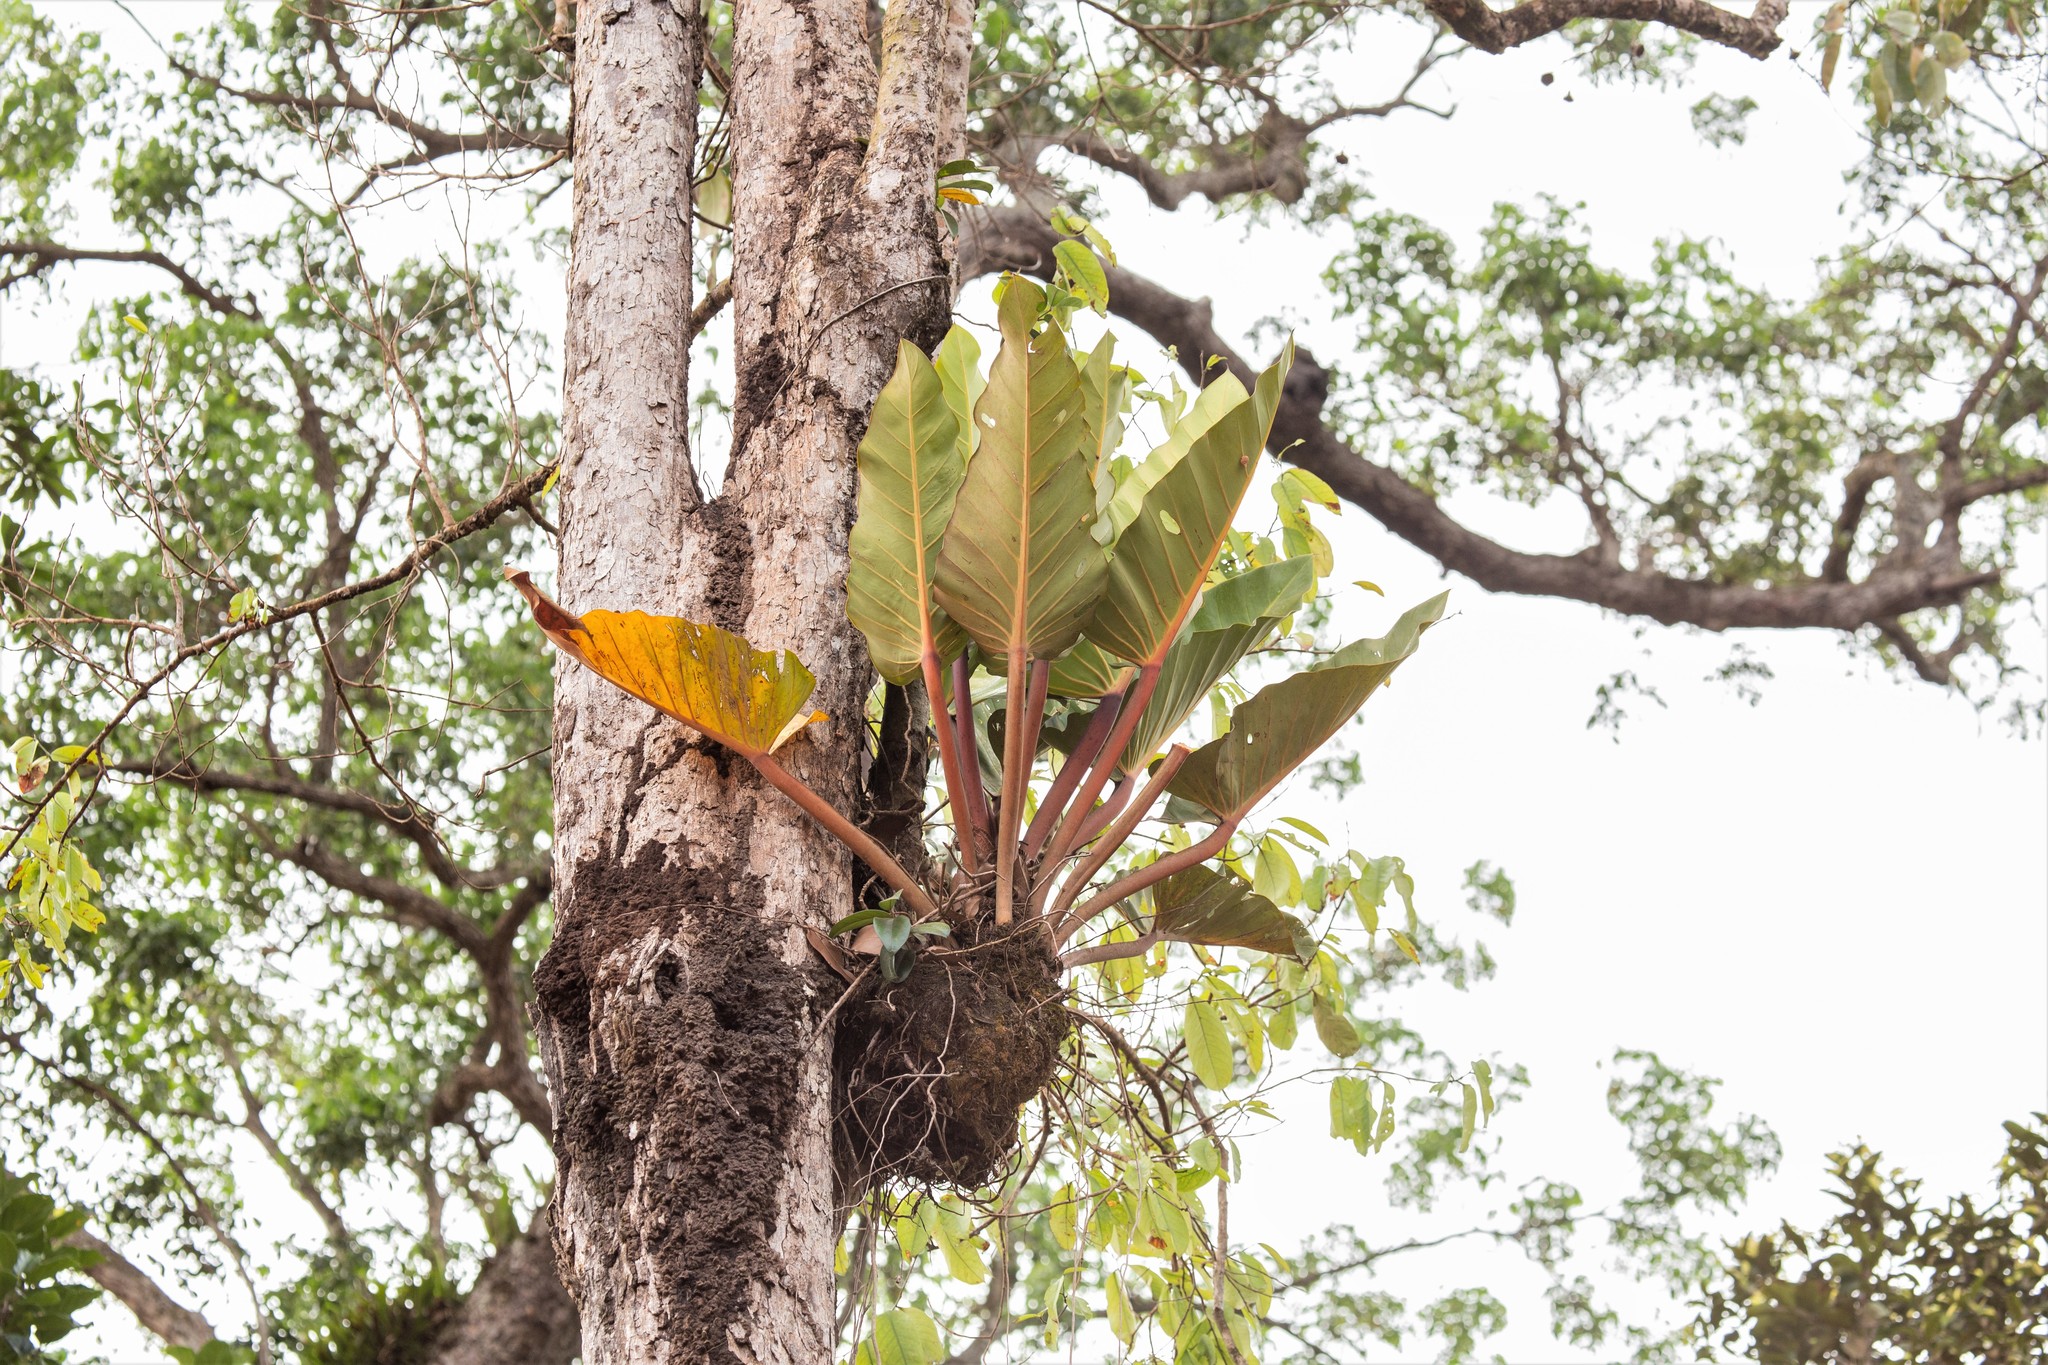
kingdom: Plantae
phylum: Tracheophyta
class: Liliopsida
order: Alismatales
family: Araceae
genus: Philodendron
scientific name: Philodendron melinonii
